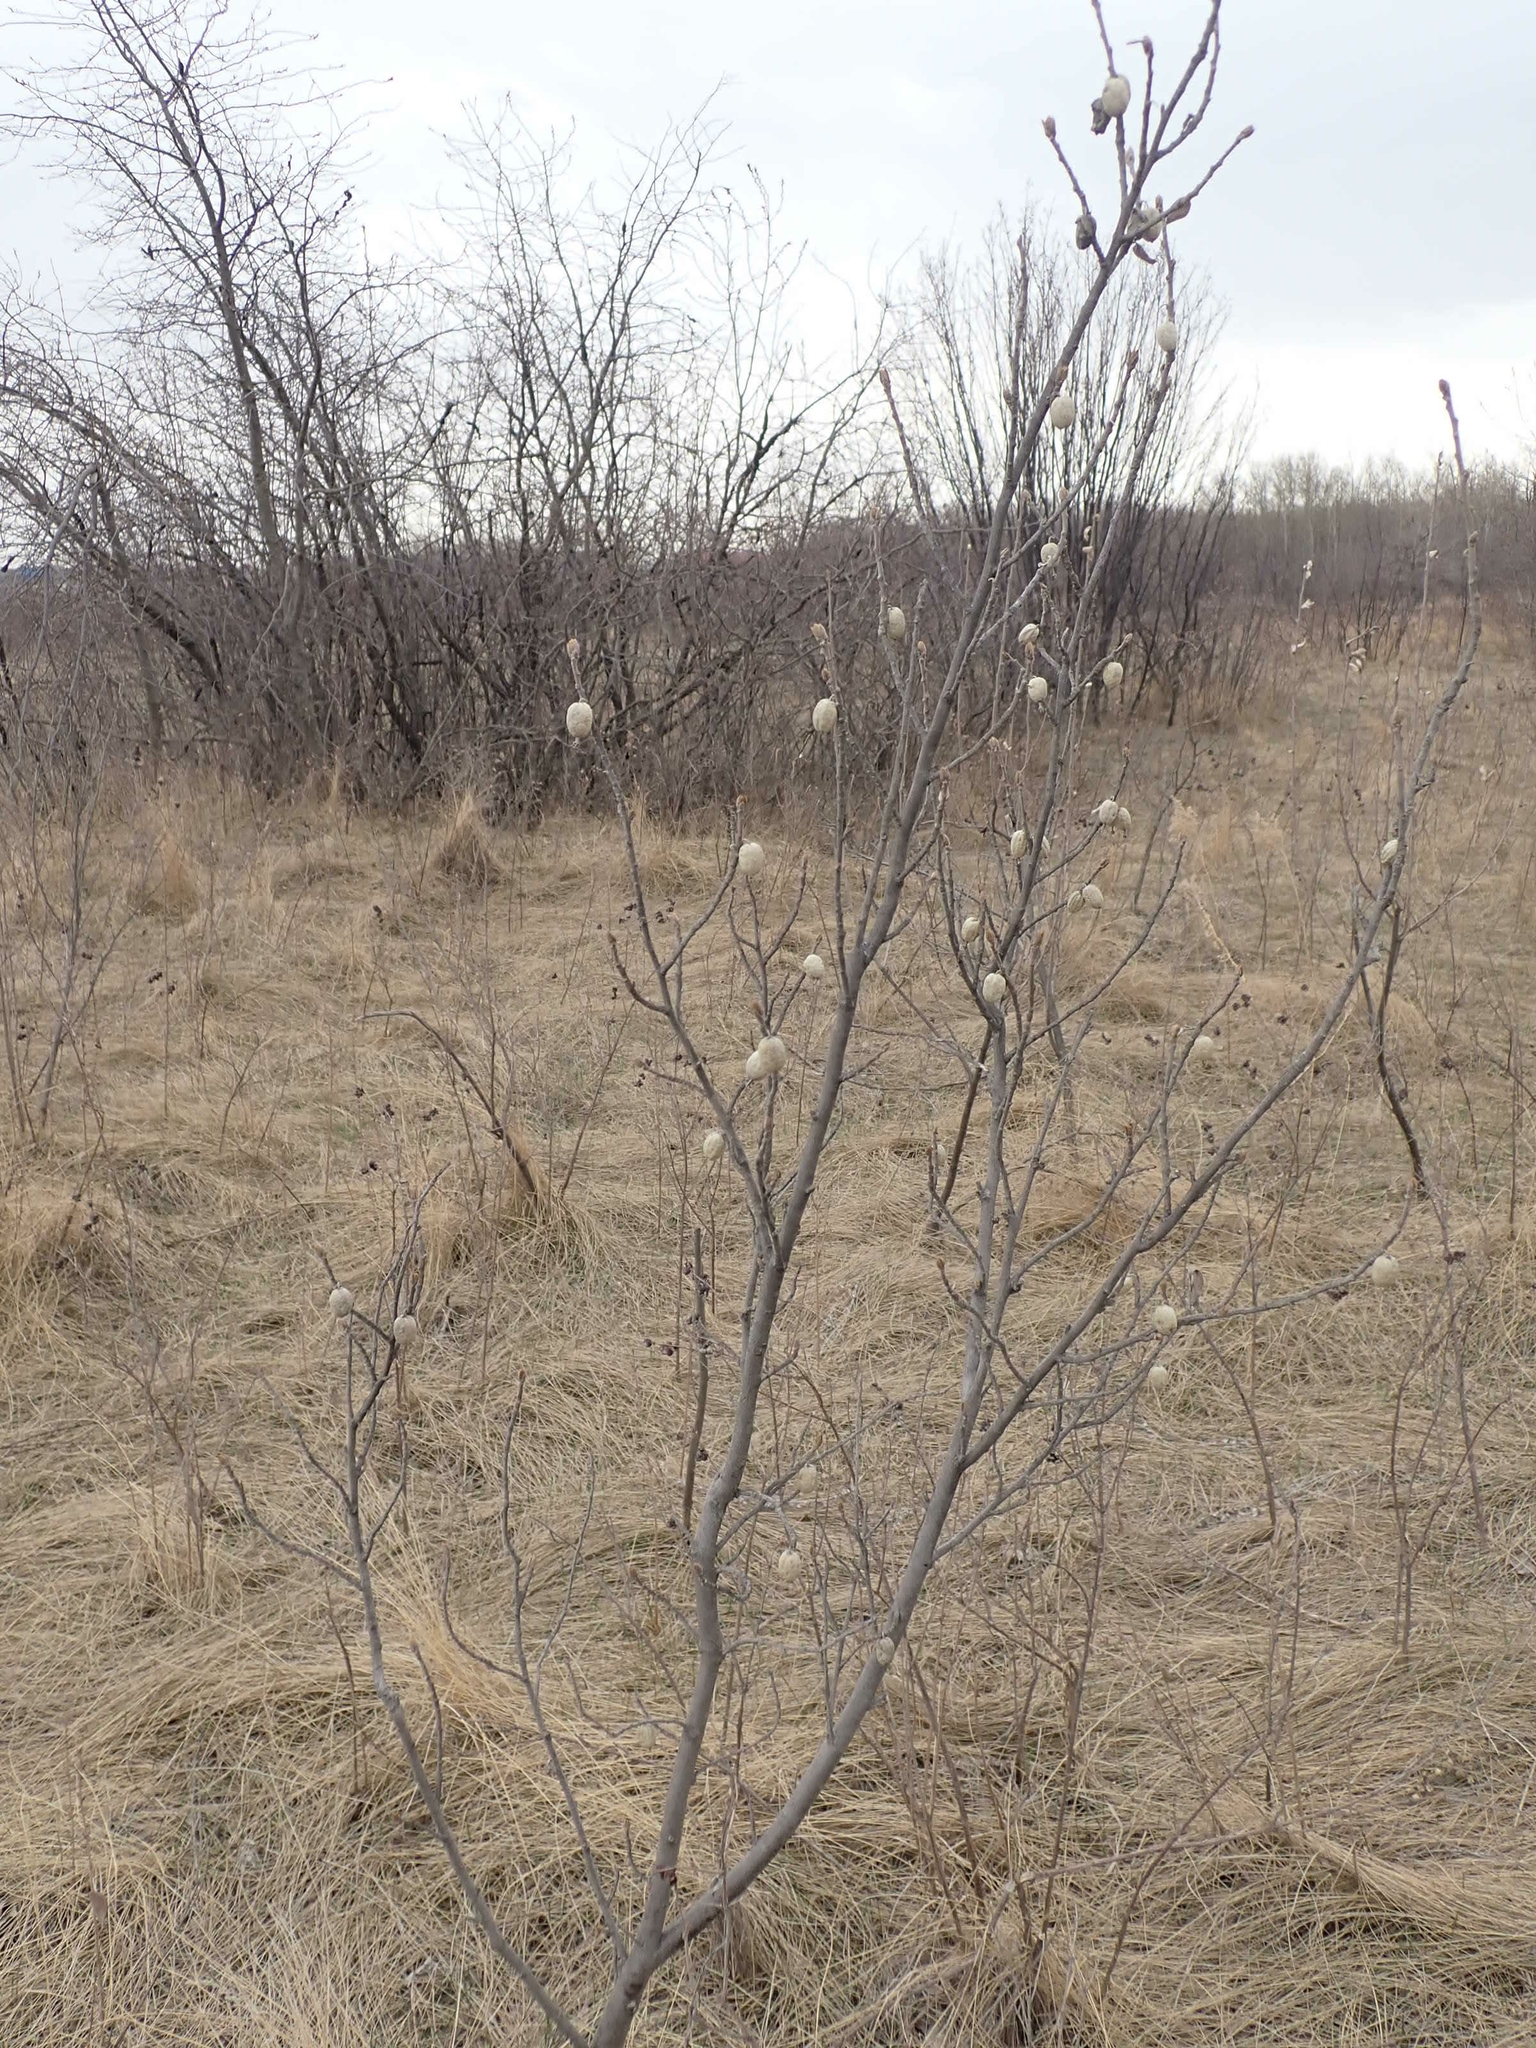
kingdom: Plantae
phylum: Tracheophyta
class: Magnoliopsida
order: Rosales
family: Elaeagnaceae
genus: Elaeagnus
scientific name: Elaeagnus commutata
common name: Silverberry
